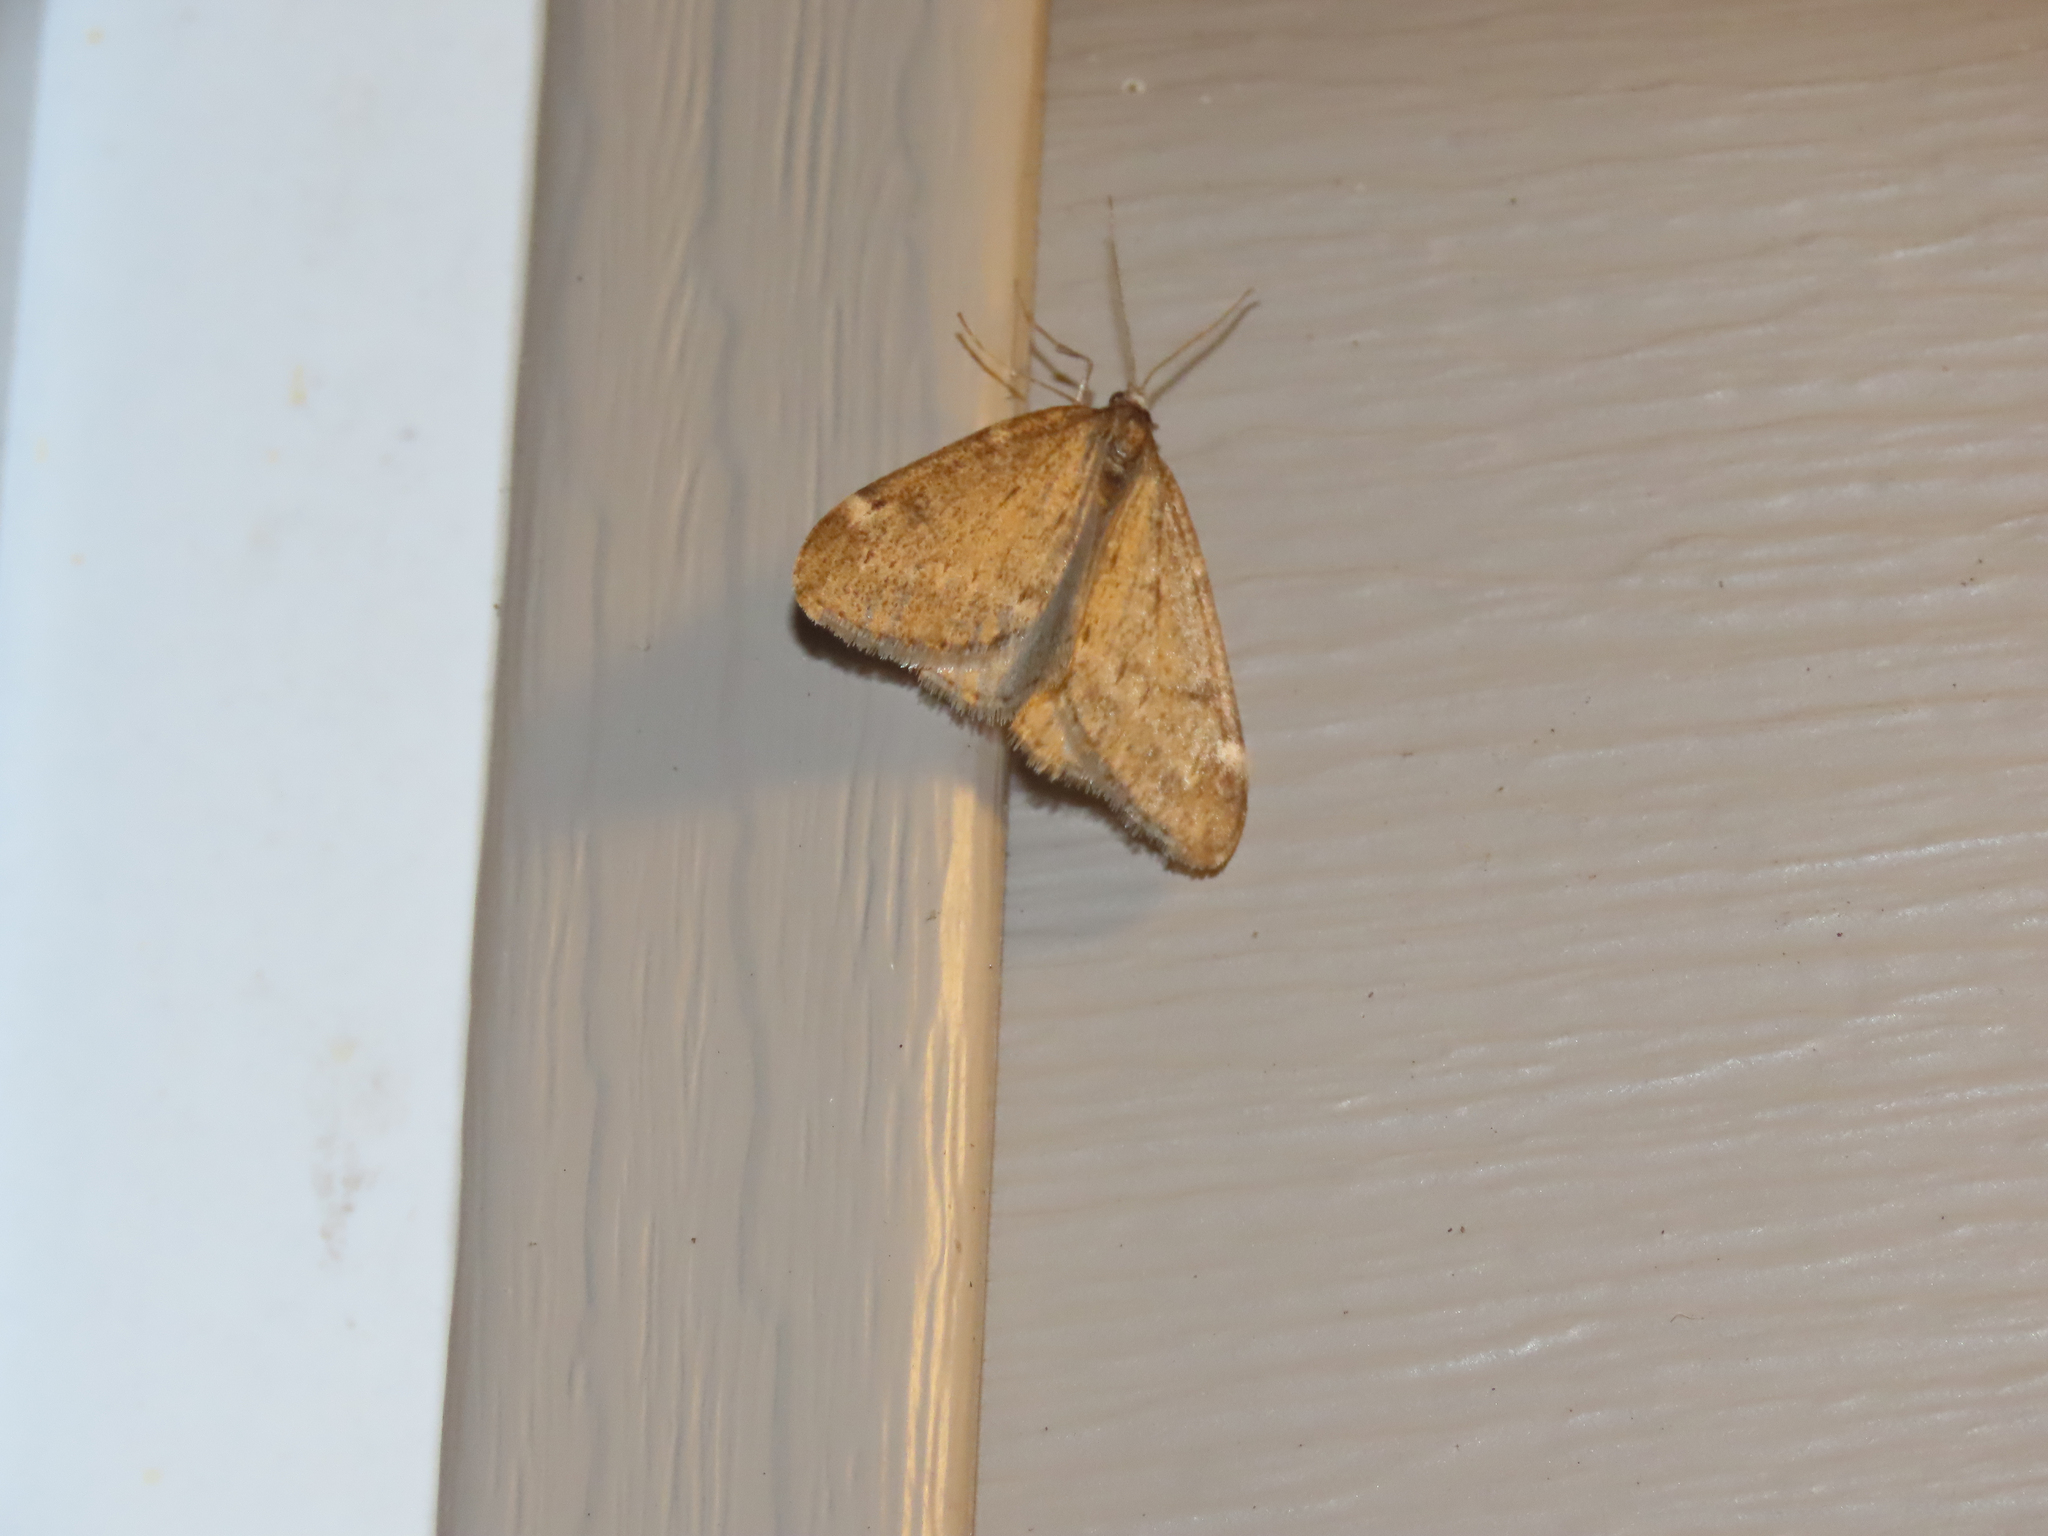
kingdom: Animalia
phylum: Arthropoda
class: Insecta
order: Lepidoptera
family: Geometridae
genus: Alsophila
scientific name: Alsophila pometaria
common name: Fall cankerworm
